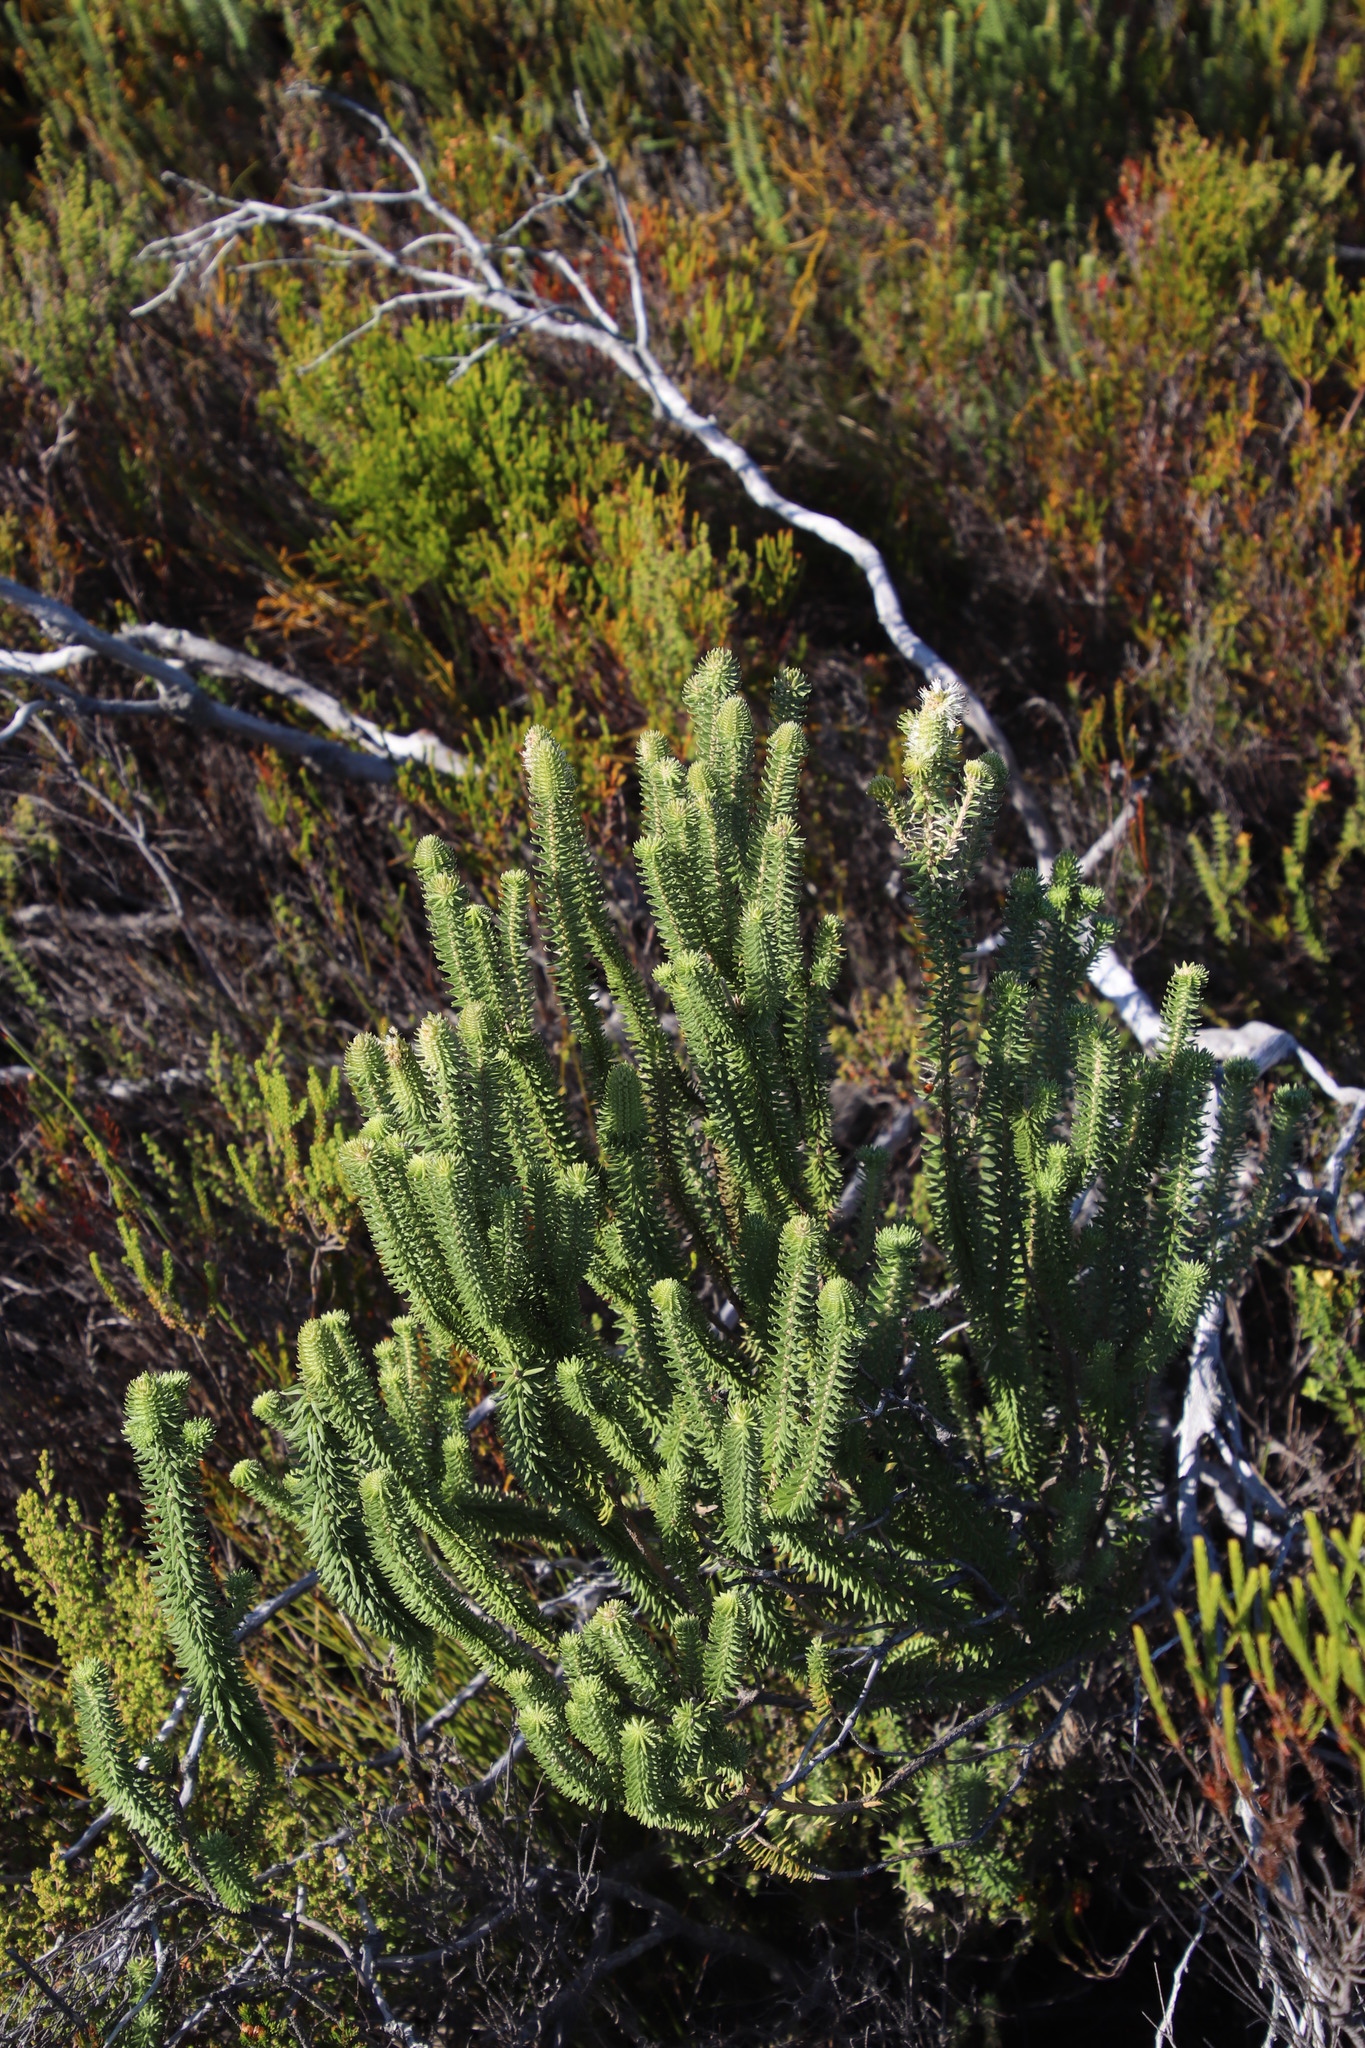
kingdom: Plantae
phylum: Tracheophyta
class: Magnoliopsida
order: Lamiales
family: Stilbaceae
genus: Stilbe
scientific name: Stilbe vestita
